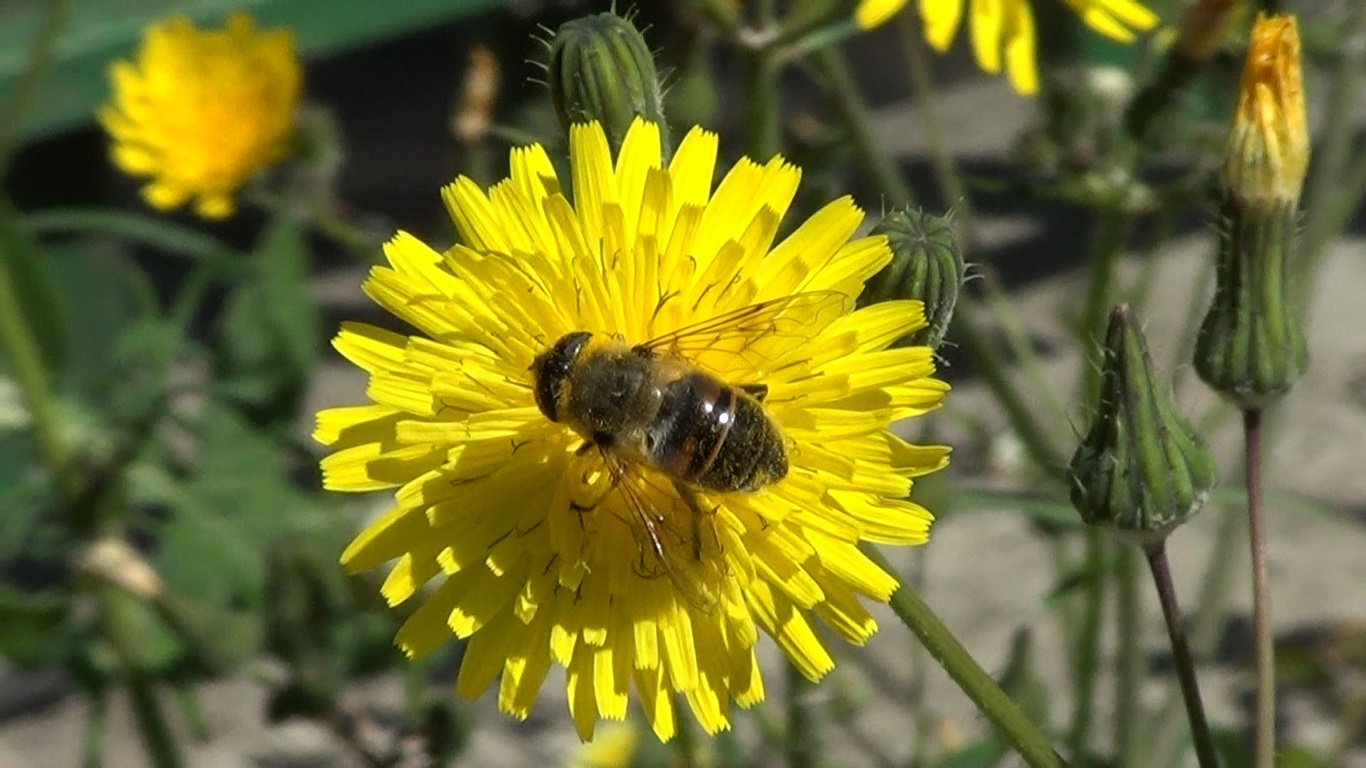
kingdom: Animalia
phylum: Arthropoda
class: Insecta
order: Diptera
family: Syrphidae
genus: Eristalis
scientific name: Eristalis tenax
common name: Drone fly
